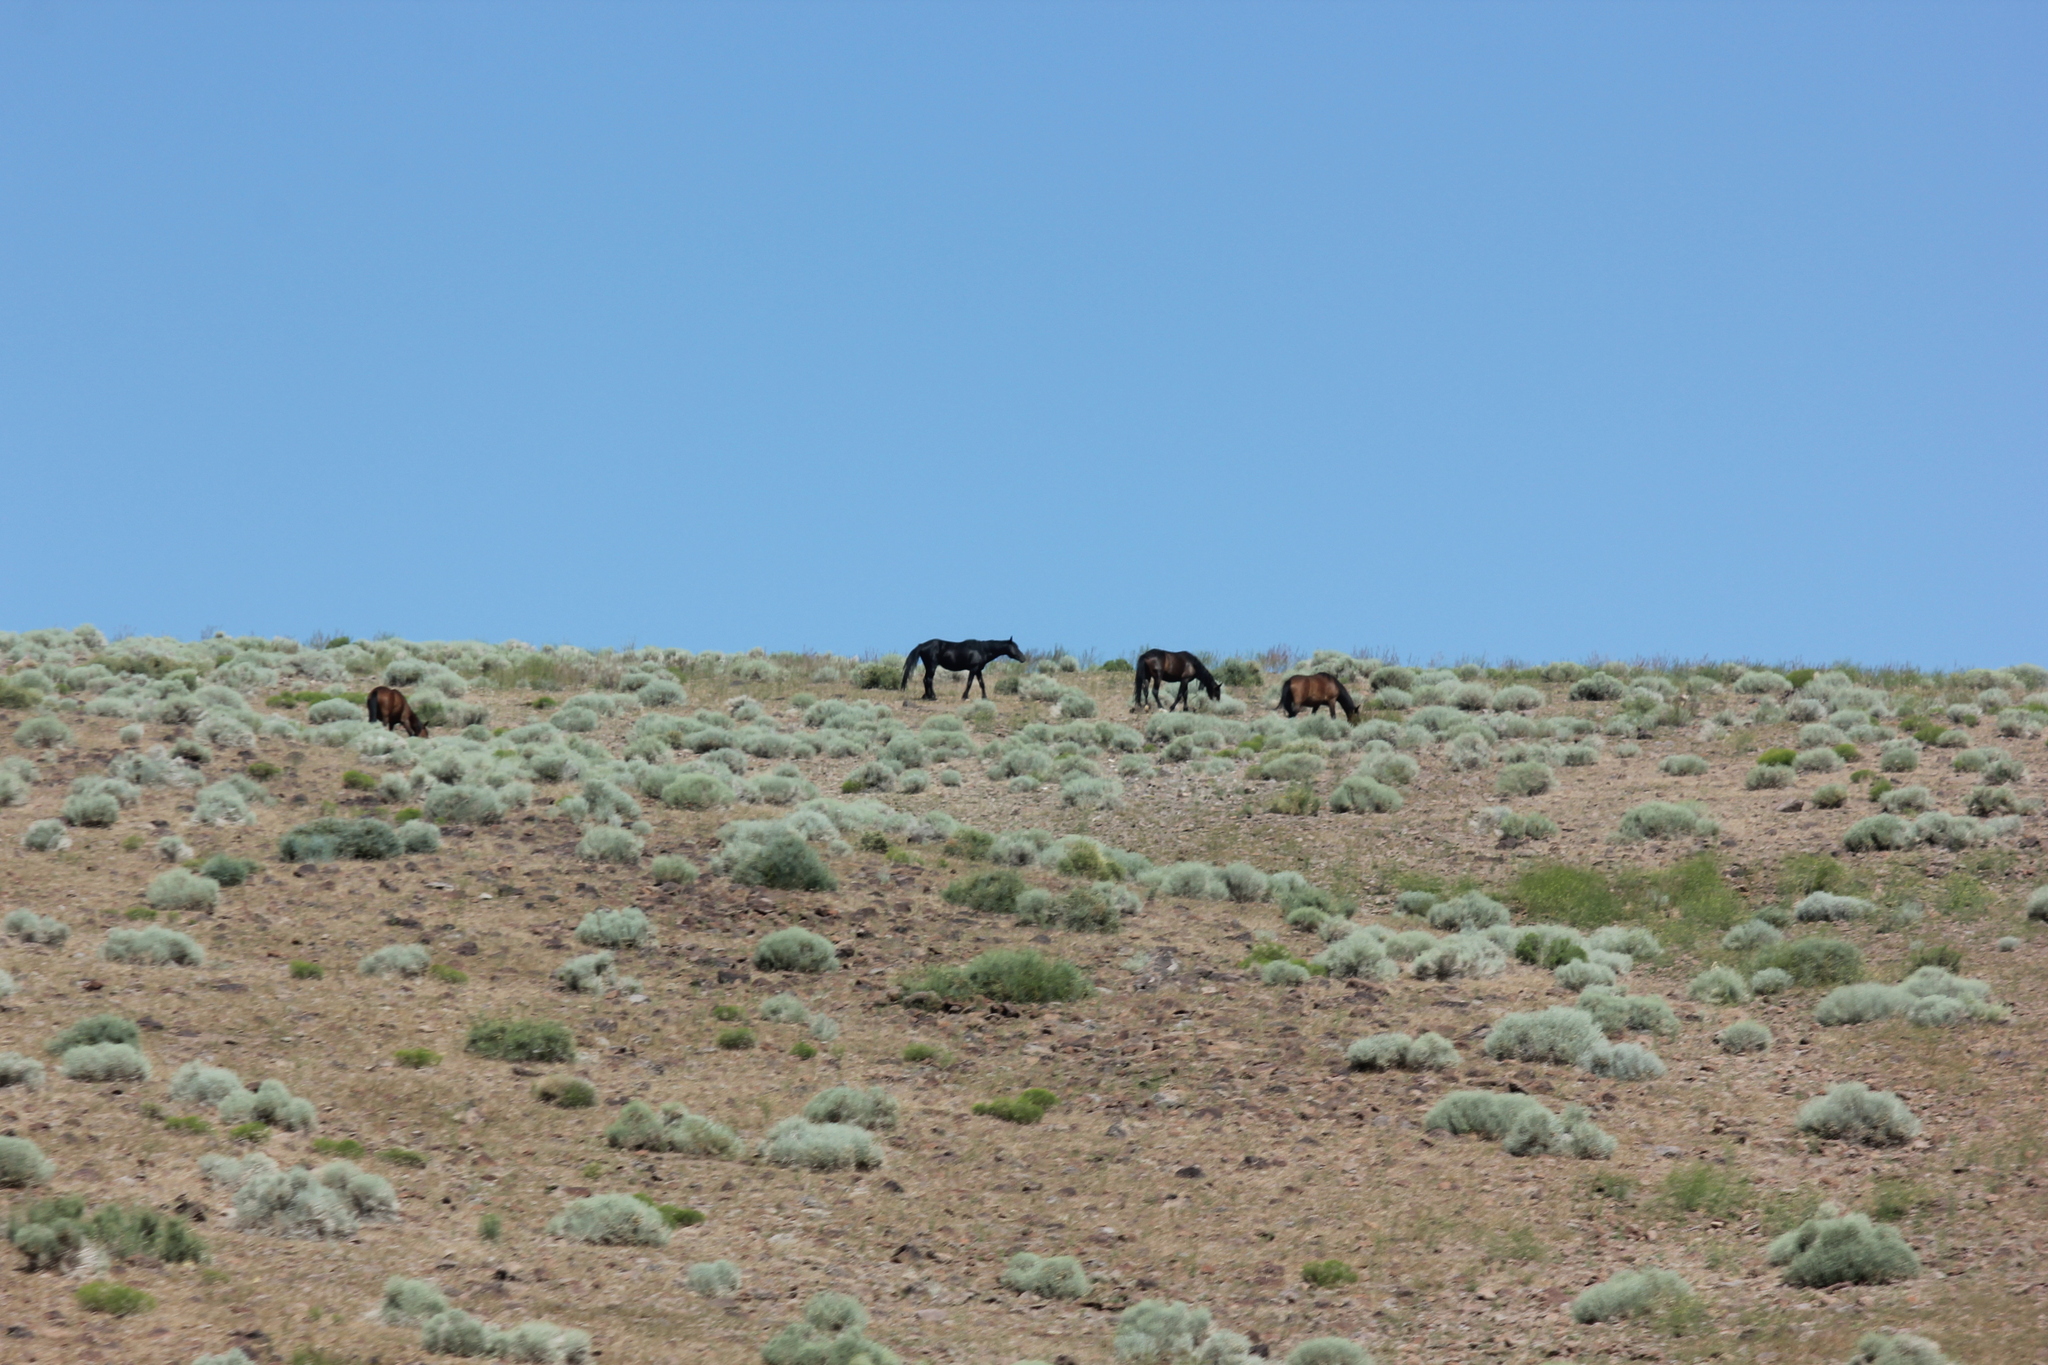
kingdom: Animalia
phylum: Chordata
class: Mammalia
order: Perissodactyla
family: Equidae
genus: Equus
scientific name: Equus caballus
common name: Horse
